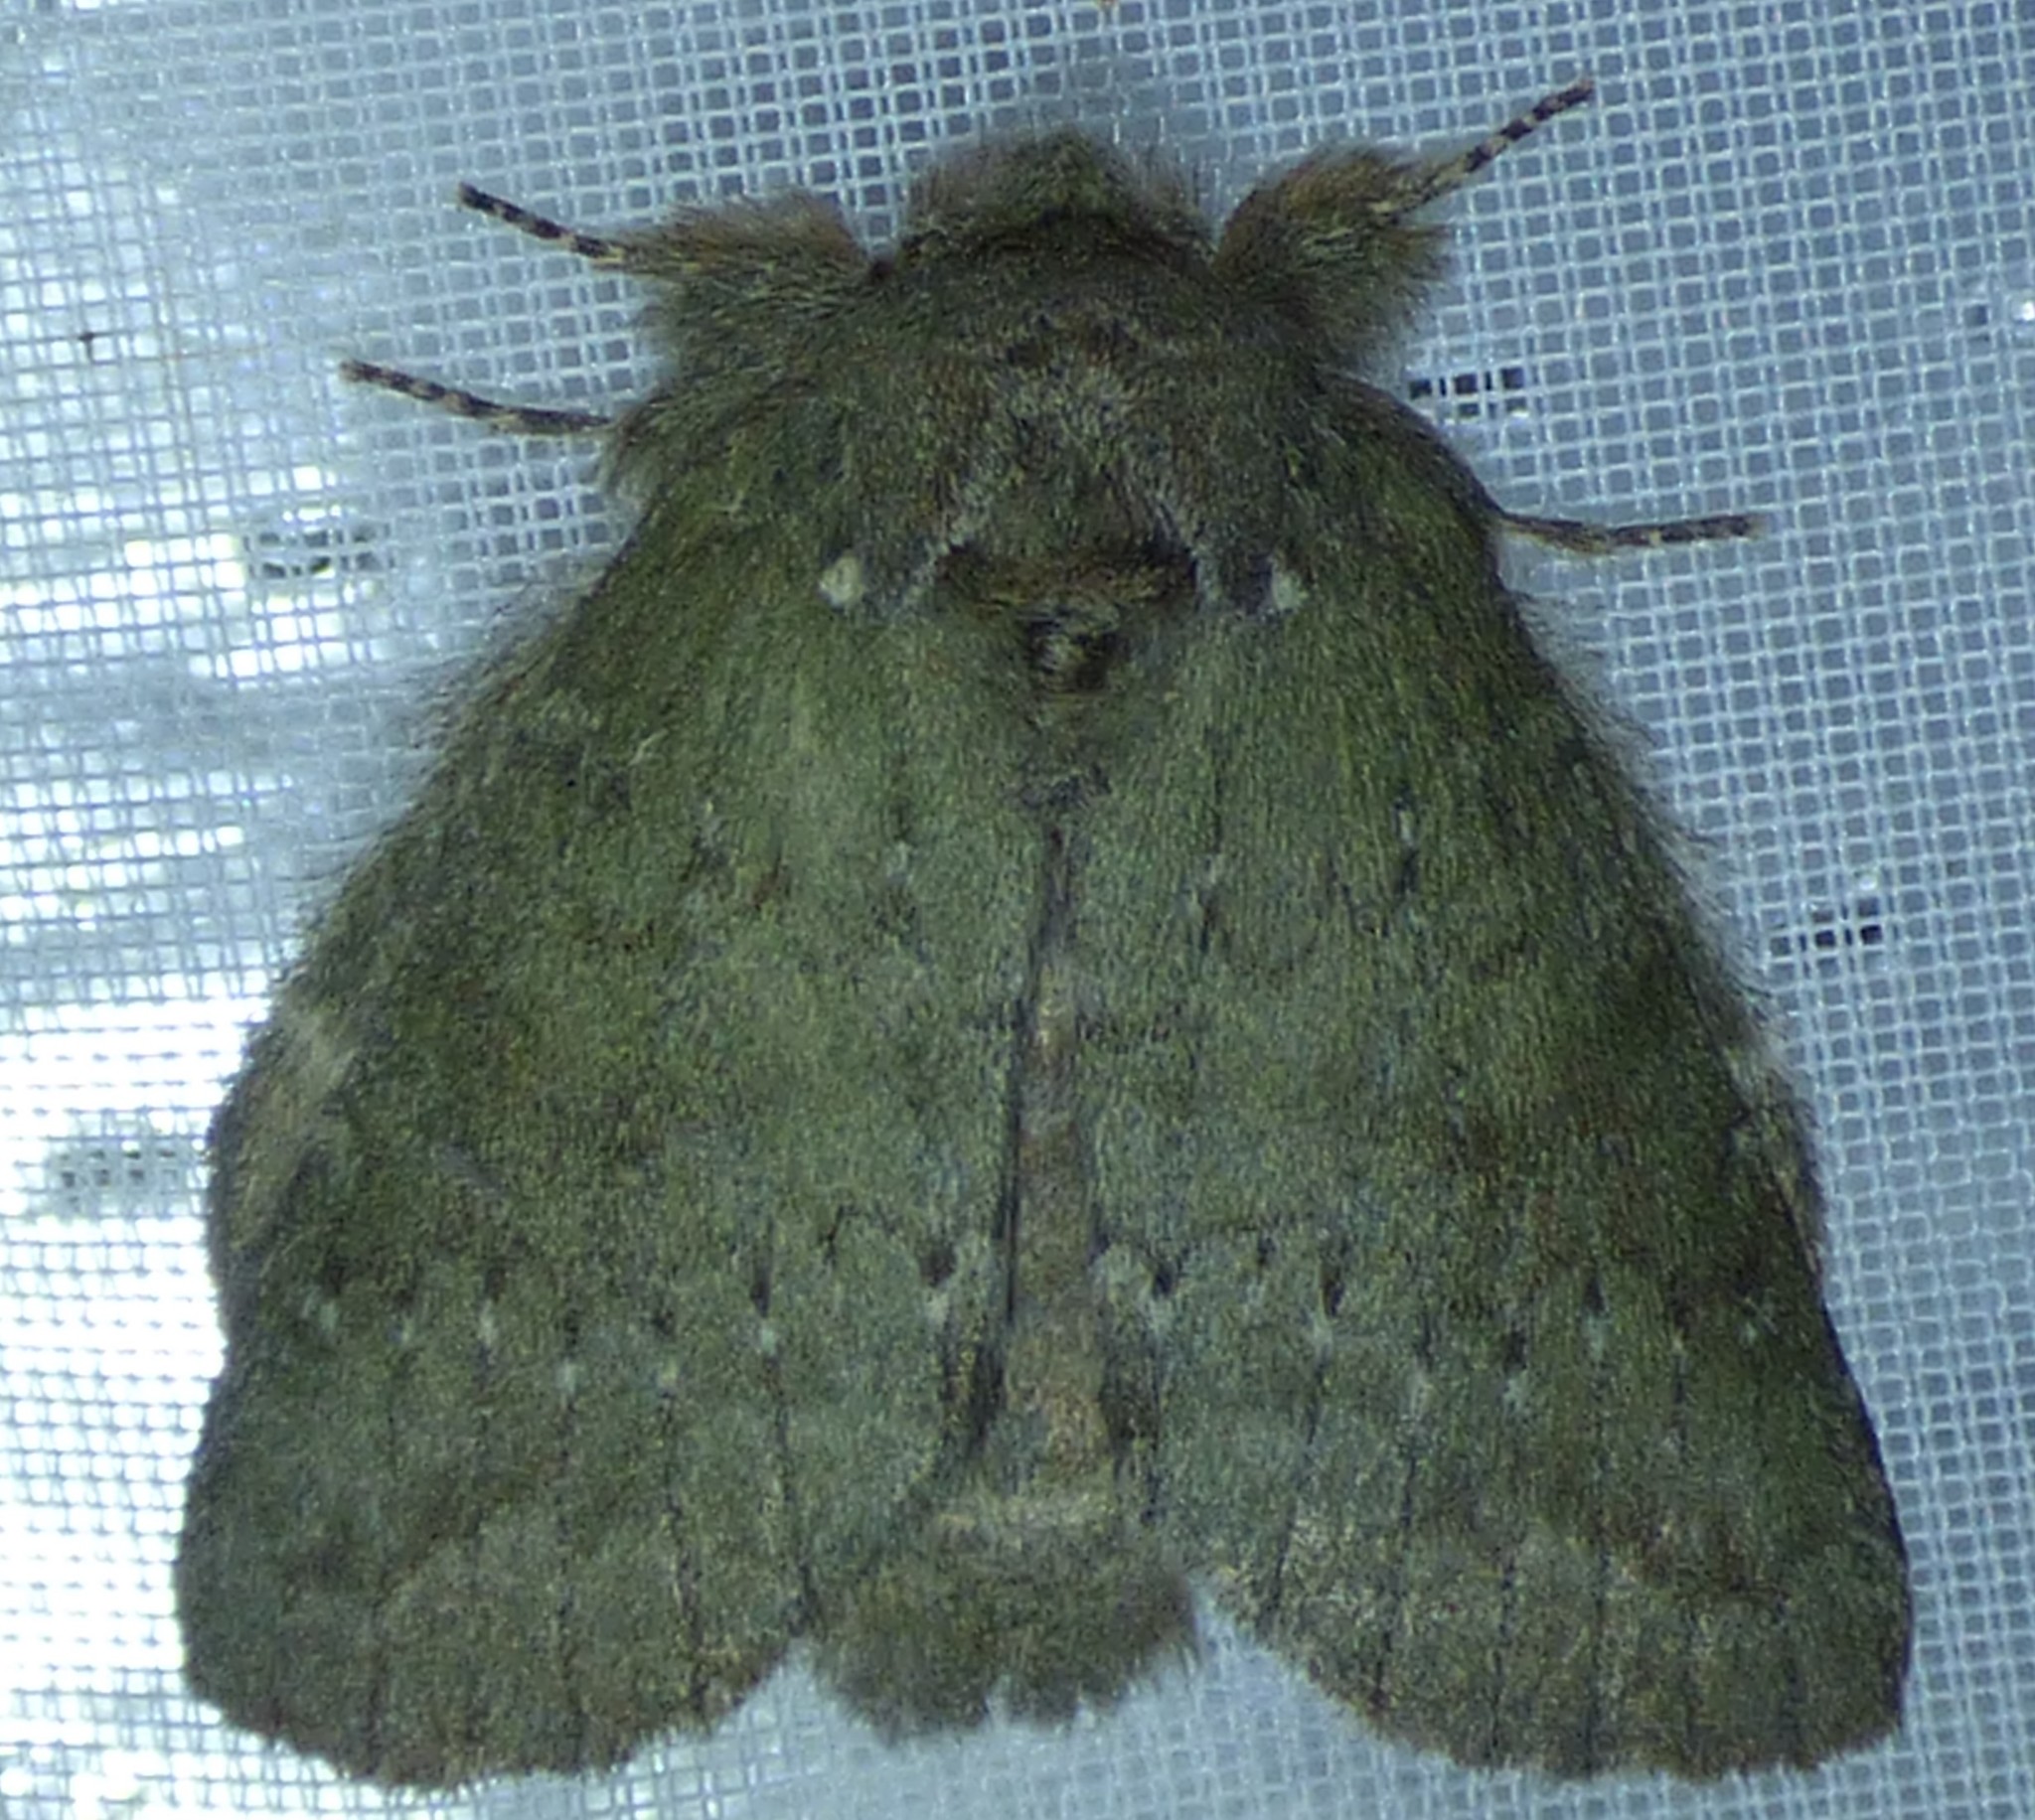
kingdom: Animalia
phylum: Arthropoda
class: Insecta
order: Lepidoptera
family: Notodontidae
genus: Misogada
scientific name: Misogada unicolor
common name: Drab prominent
